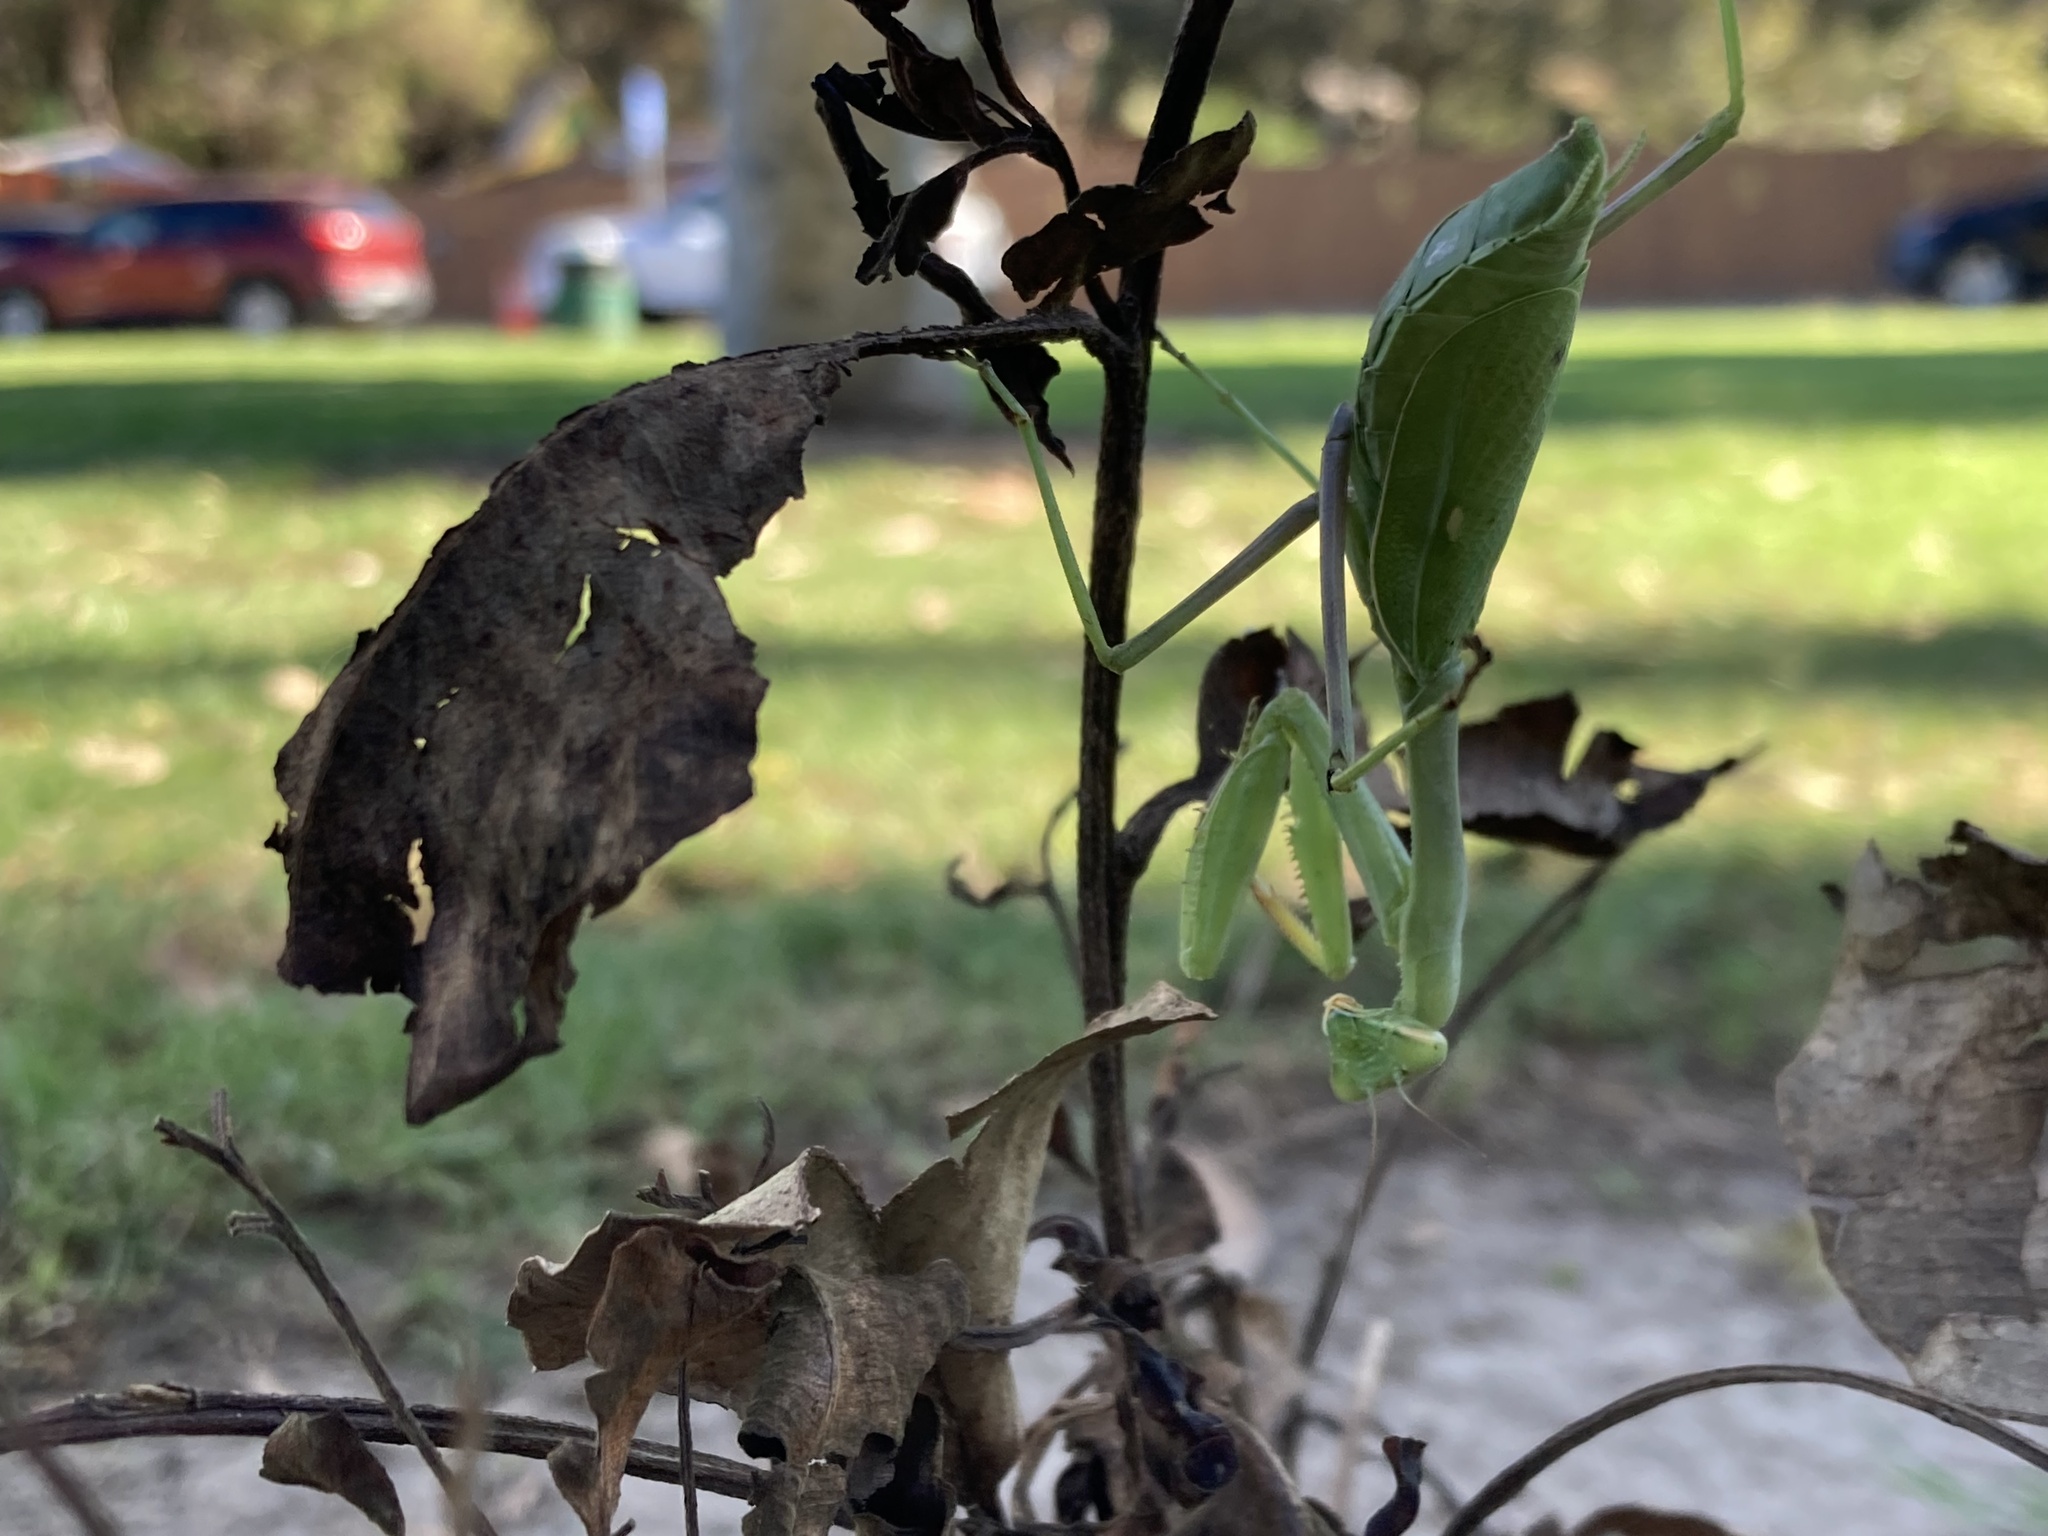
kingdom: Animalia
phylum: Arthropoda
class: Insecta
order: Mantodea
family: Mantidae
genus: Stagmomantis
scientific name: Stagmomantis limbata
